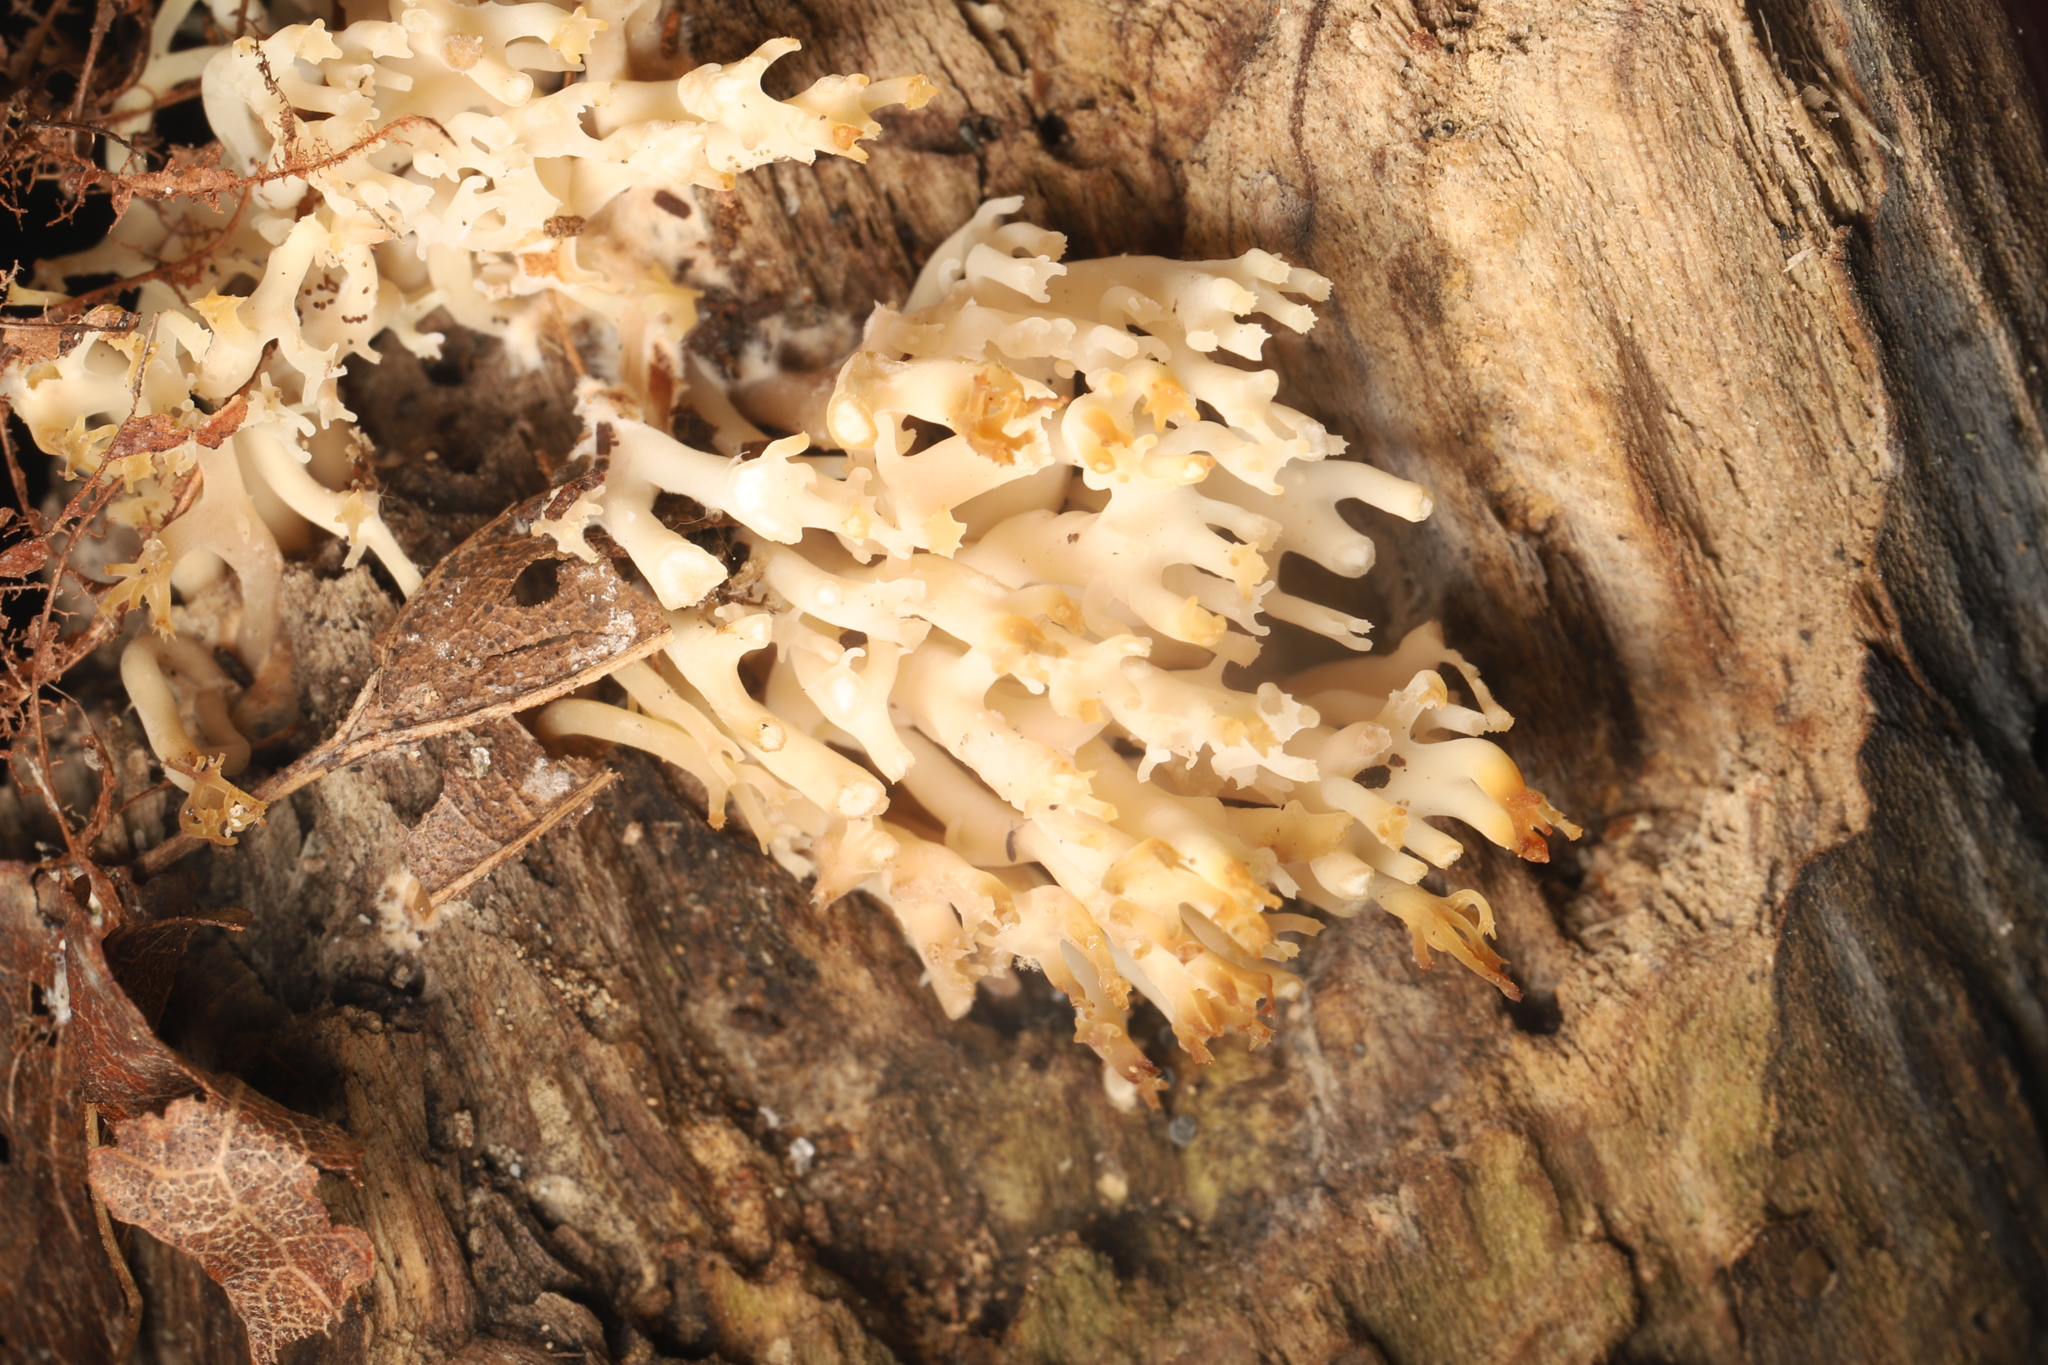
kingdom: Fungi
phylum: Basidiomycota
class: Agaricomycetes
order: Russulales
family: Auriscalpiaceae
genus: Artomyces
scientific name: Artomyces pyxidatus
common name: Crown-tipped coral fungus
